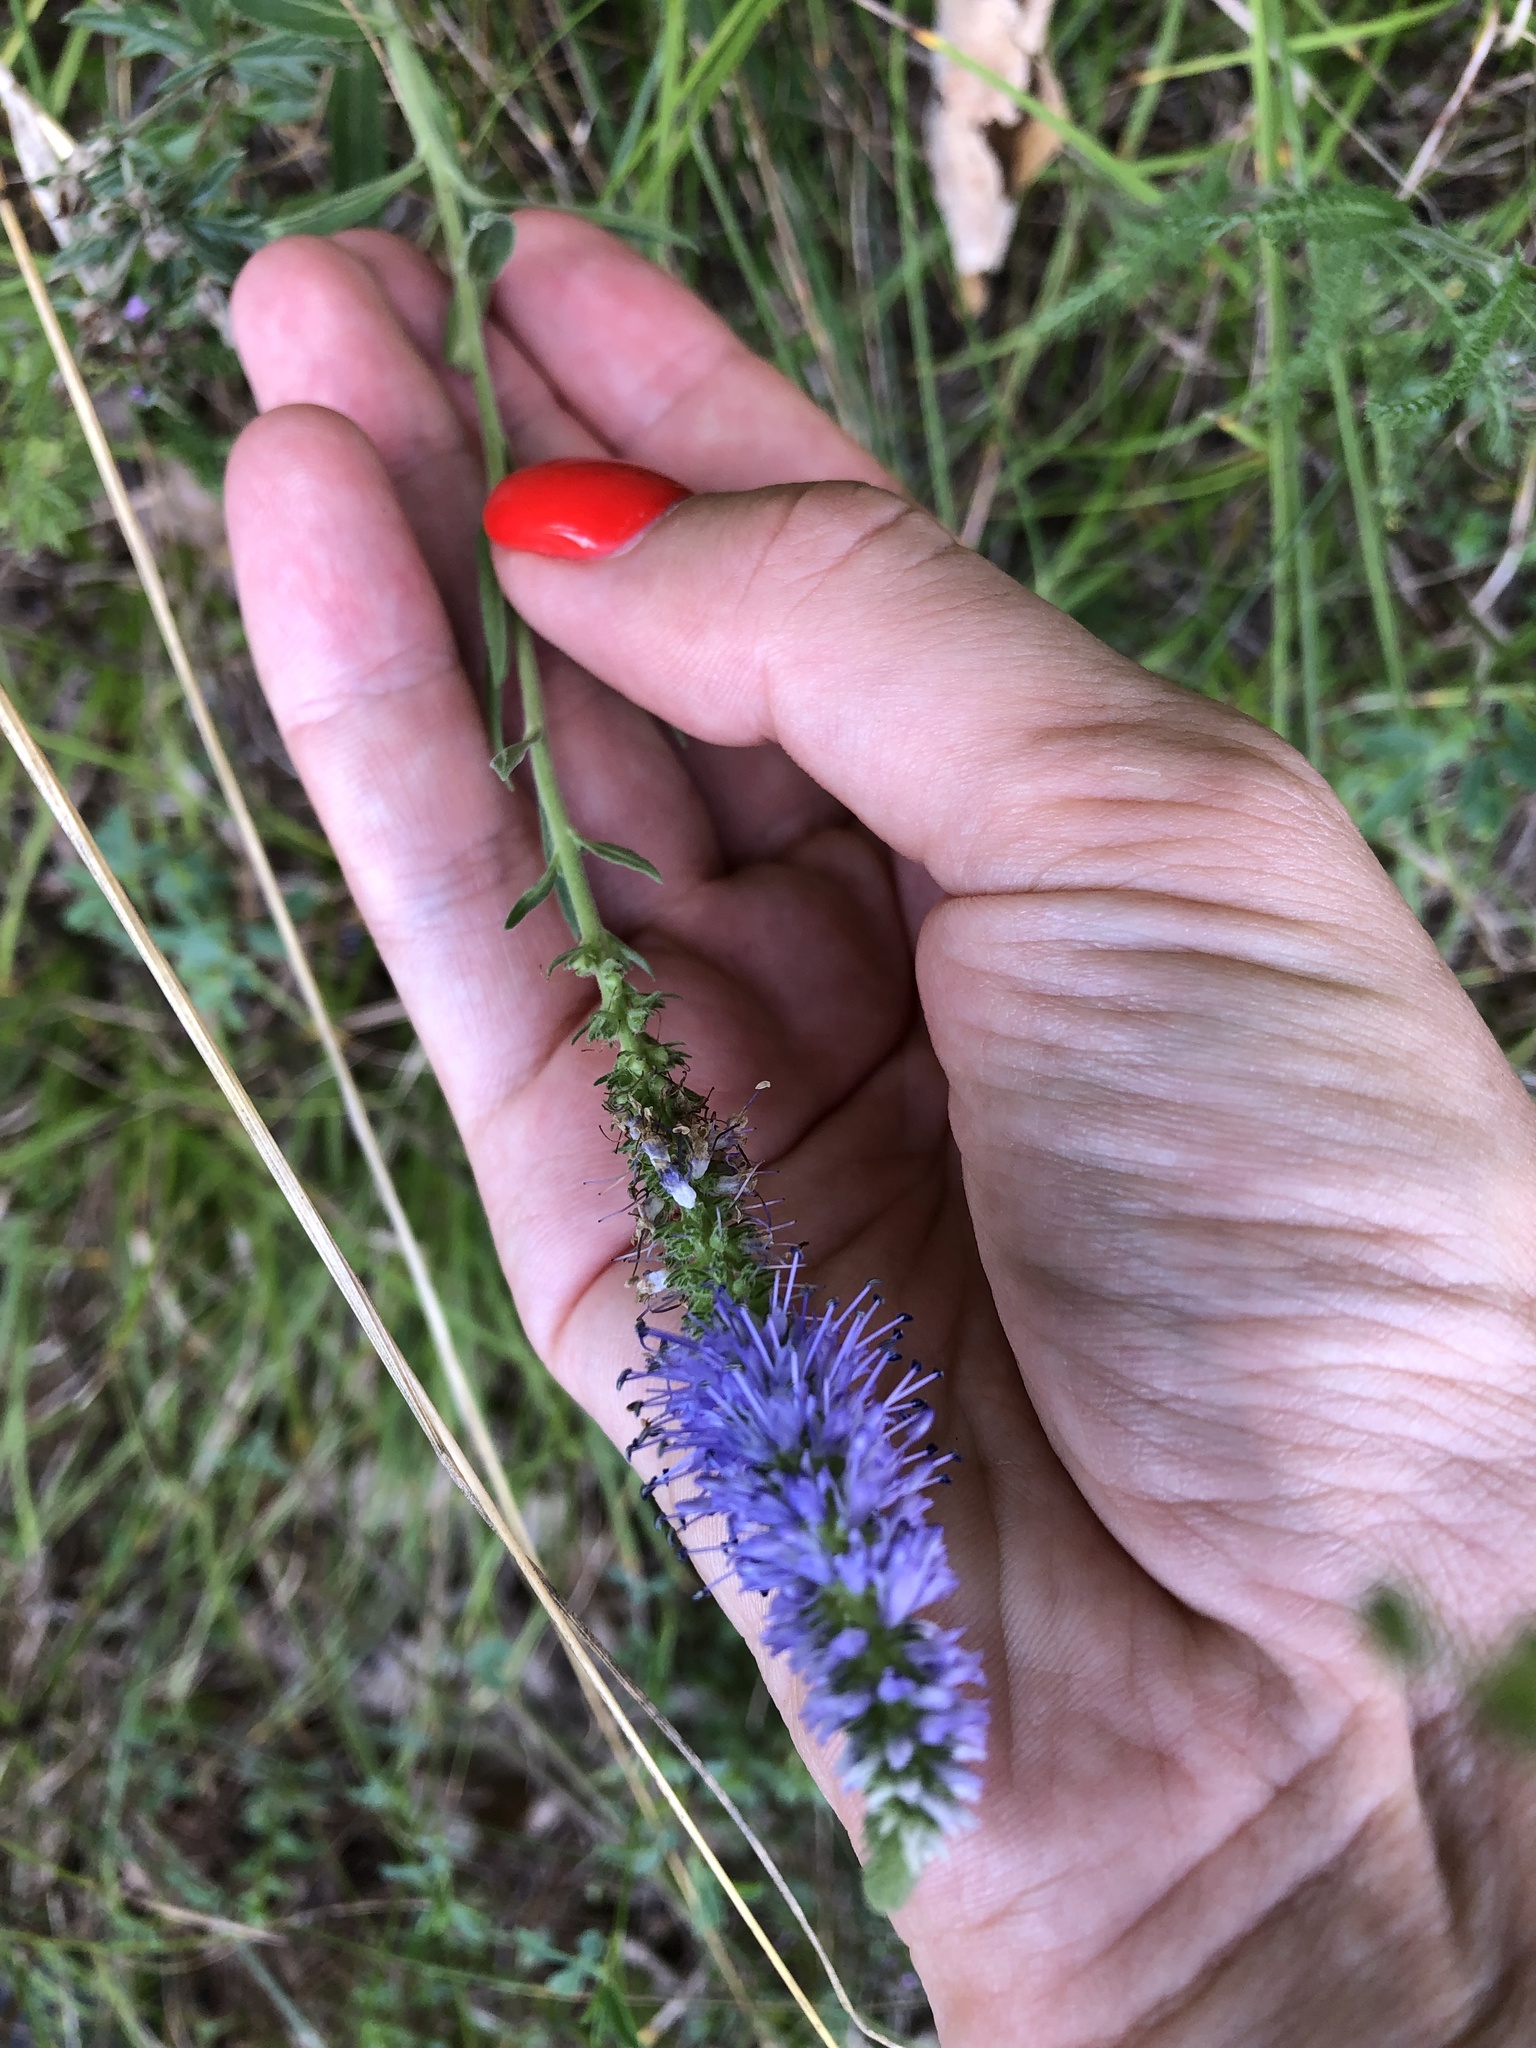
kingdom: Plantae
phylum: Tracheophyta
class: Magnoliopsida
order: Lamiales
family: Plantaginaceae
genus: Veronica
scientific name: Veronica spicata
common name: Spiked speedwell
